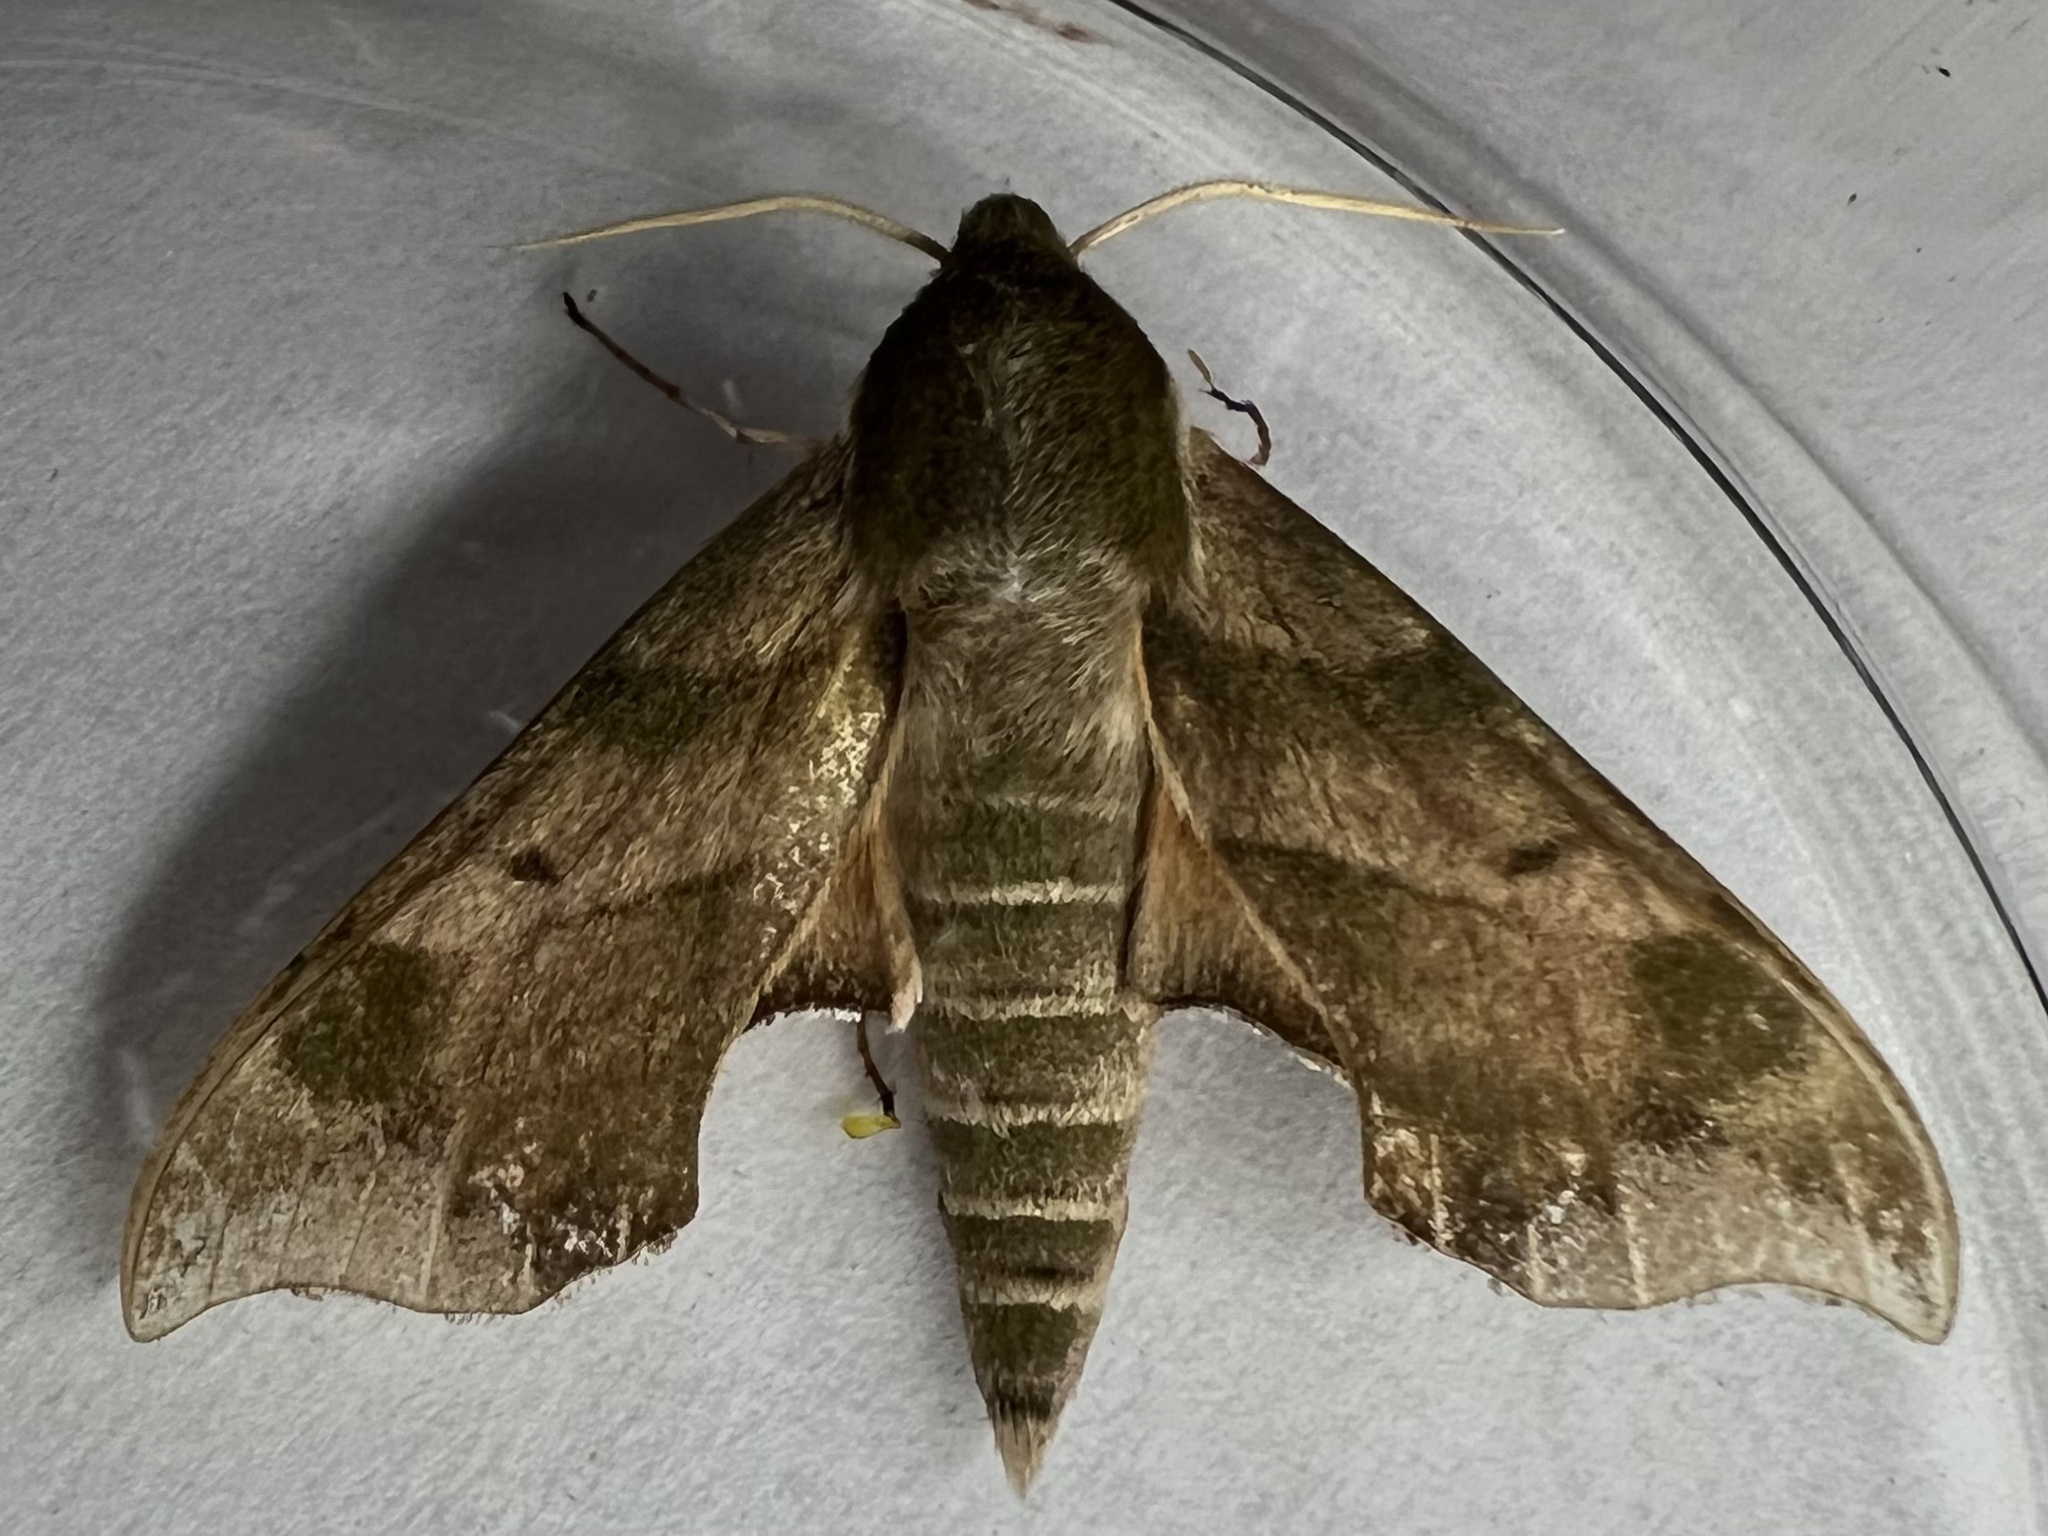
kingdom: Animalia
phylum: Arthropoda
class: Insecta
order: Lepidoptera
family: Sphingidae
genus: Darapsa
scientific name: Darapsa myron
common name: Hog sphinx
